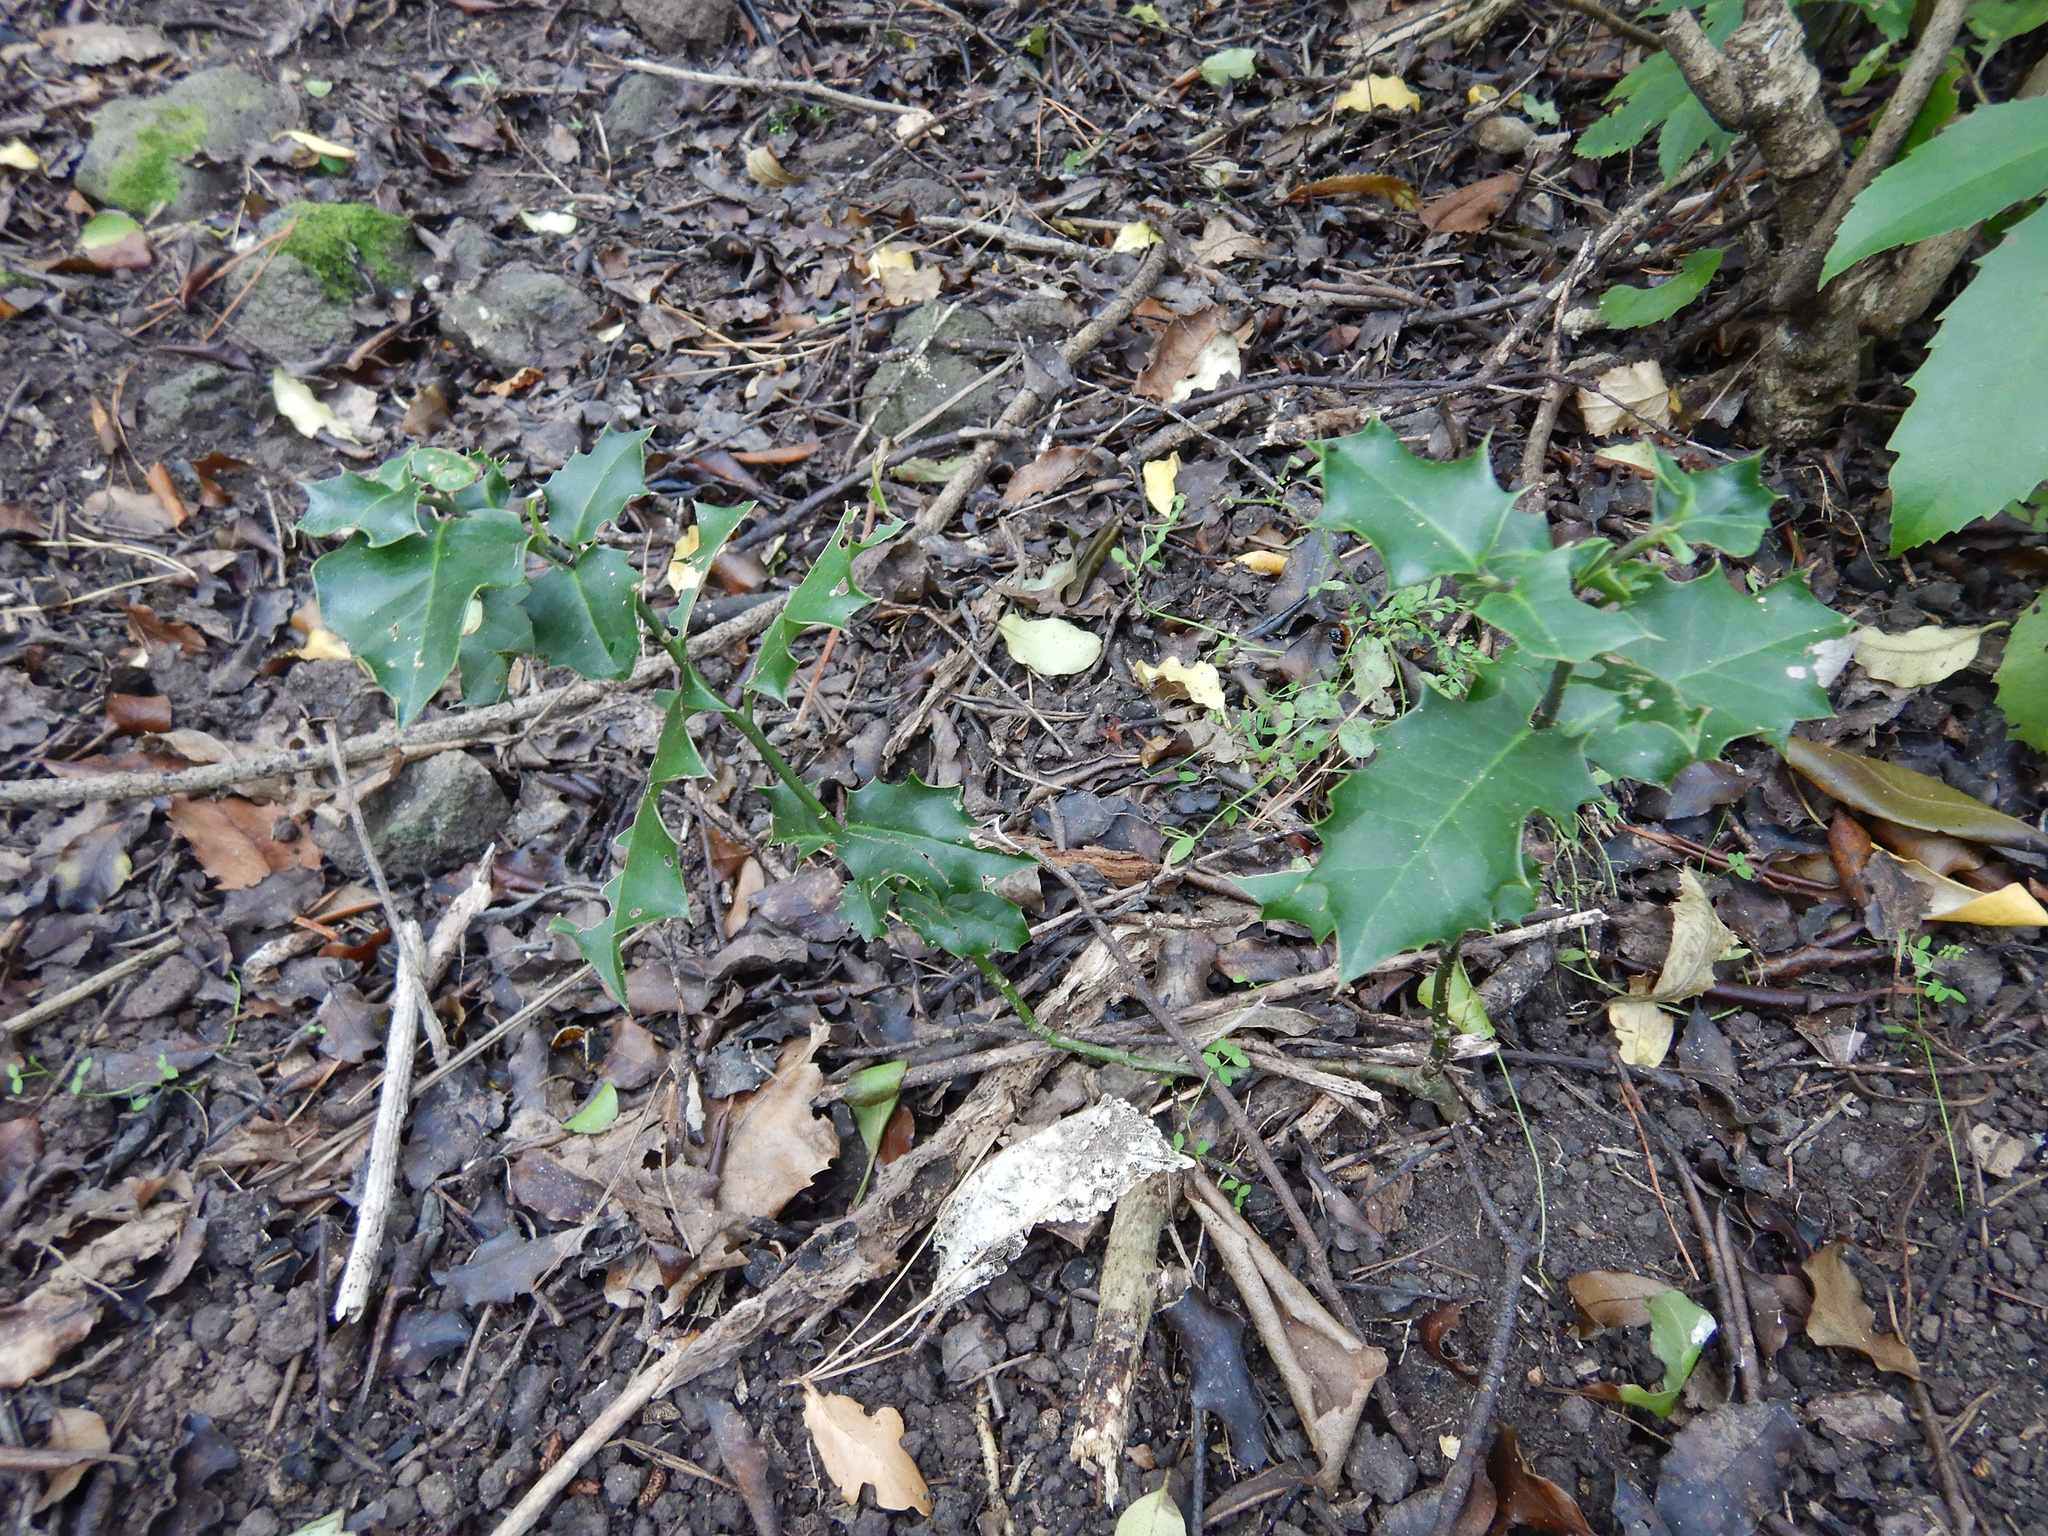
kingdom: Plantae
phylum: Tracheophyta
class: Magnoliopsida
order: Aquifoliales
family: Aquifoliaceae
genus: Ilex
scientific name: Ilex aquifolium
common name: English holly
